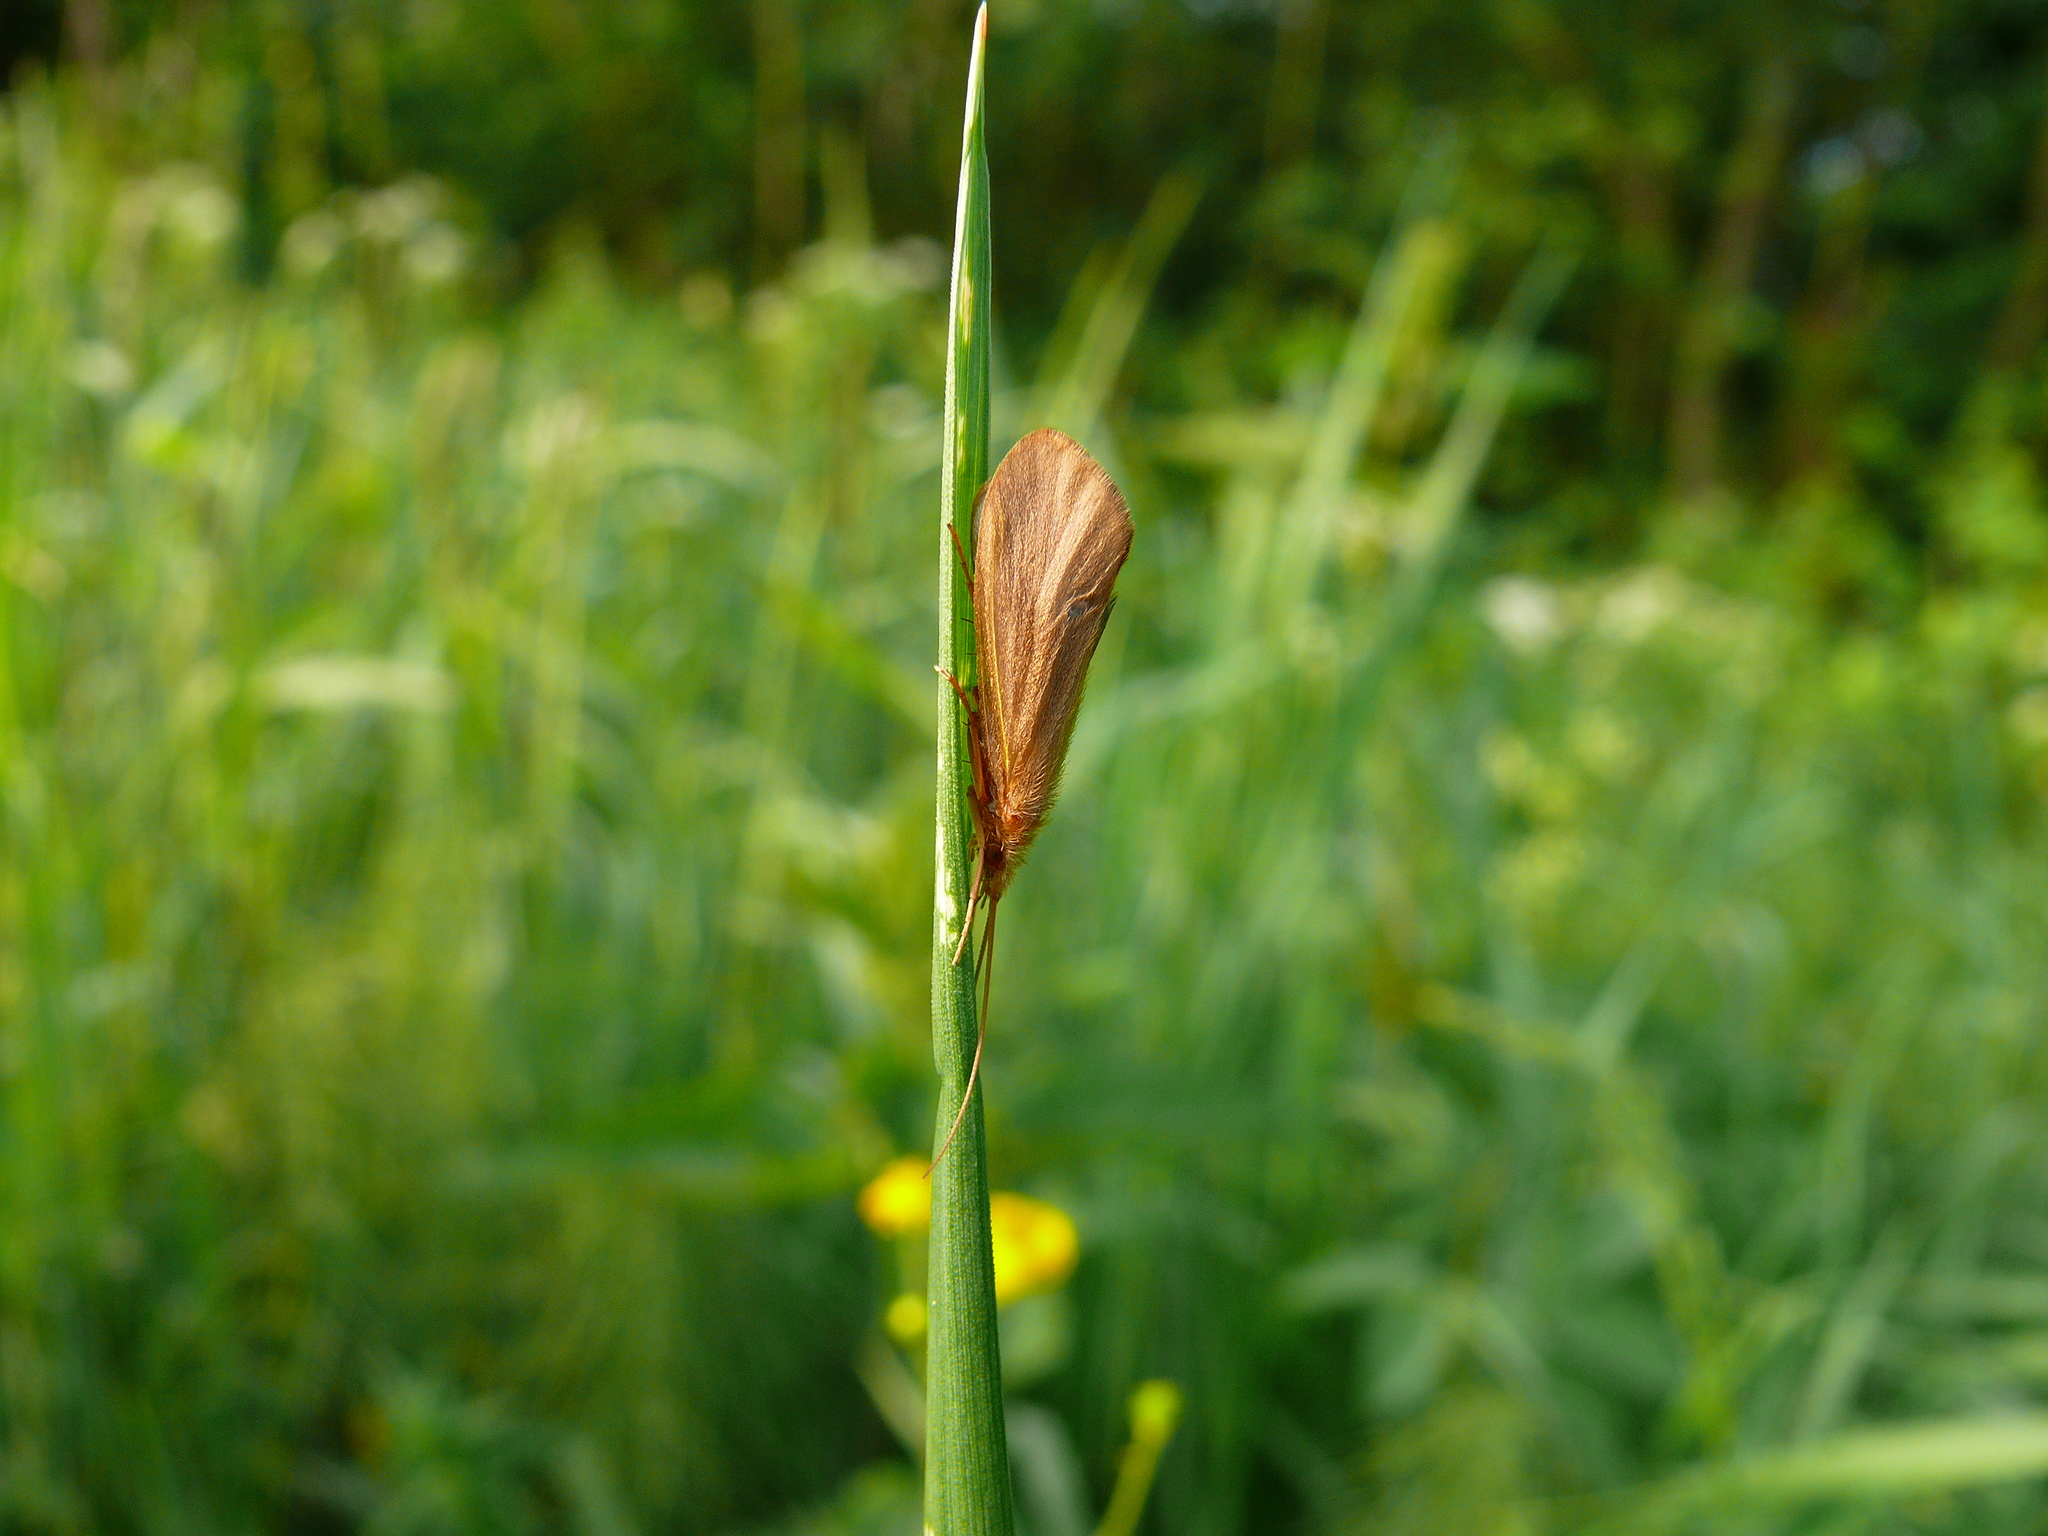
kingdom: Animalia
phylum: Arthropoda
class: Insecta
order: Trichoptera
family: Goeridae
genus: Goera
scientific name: Goera pilosa
